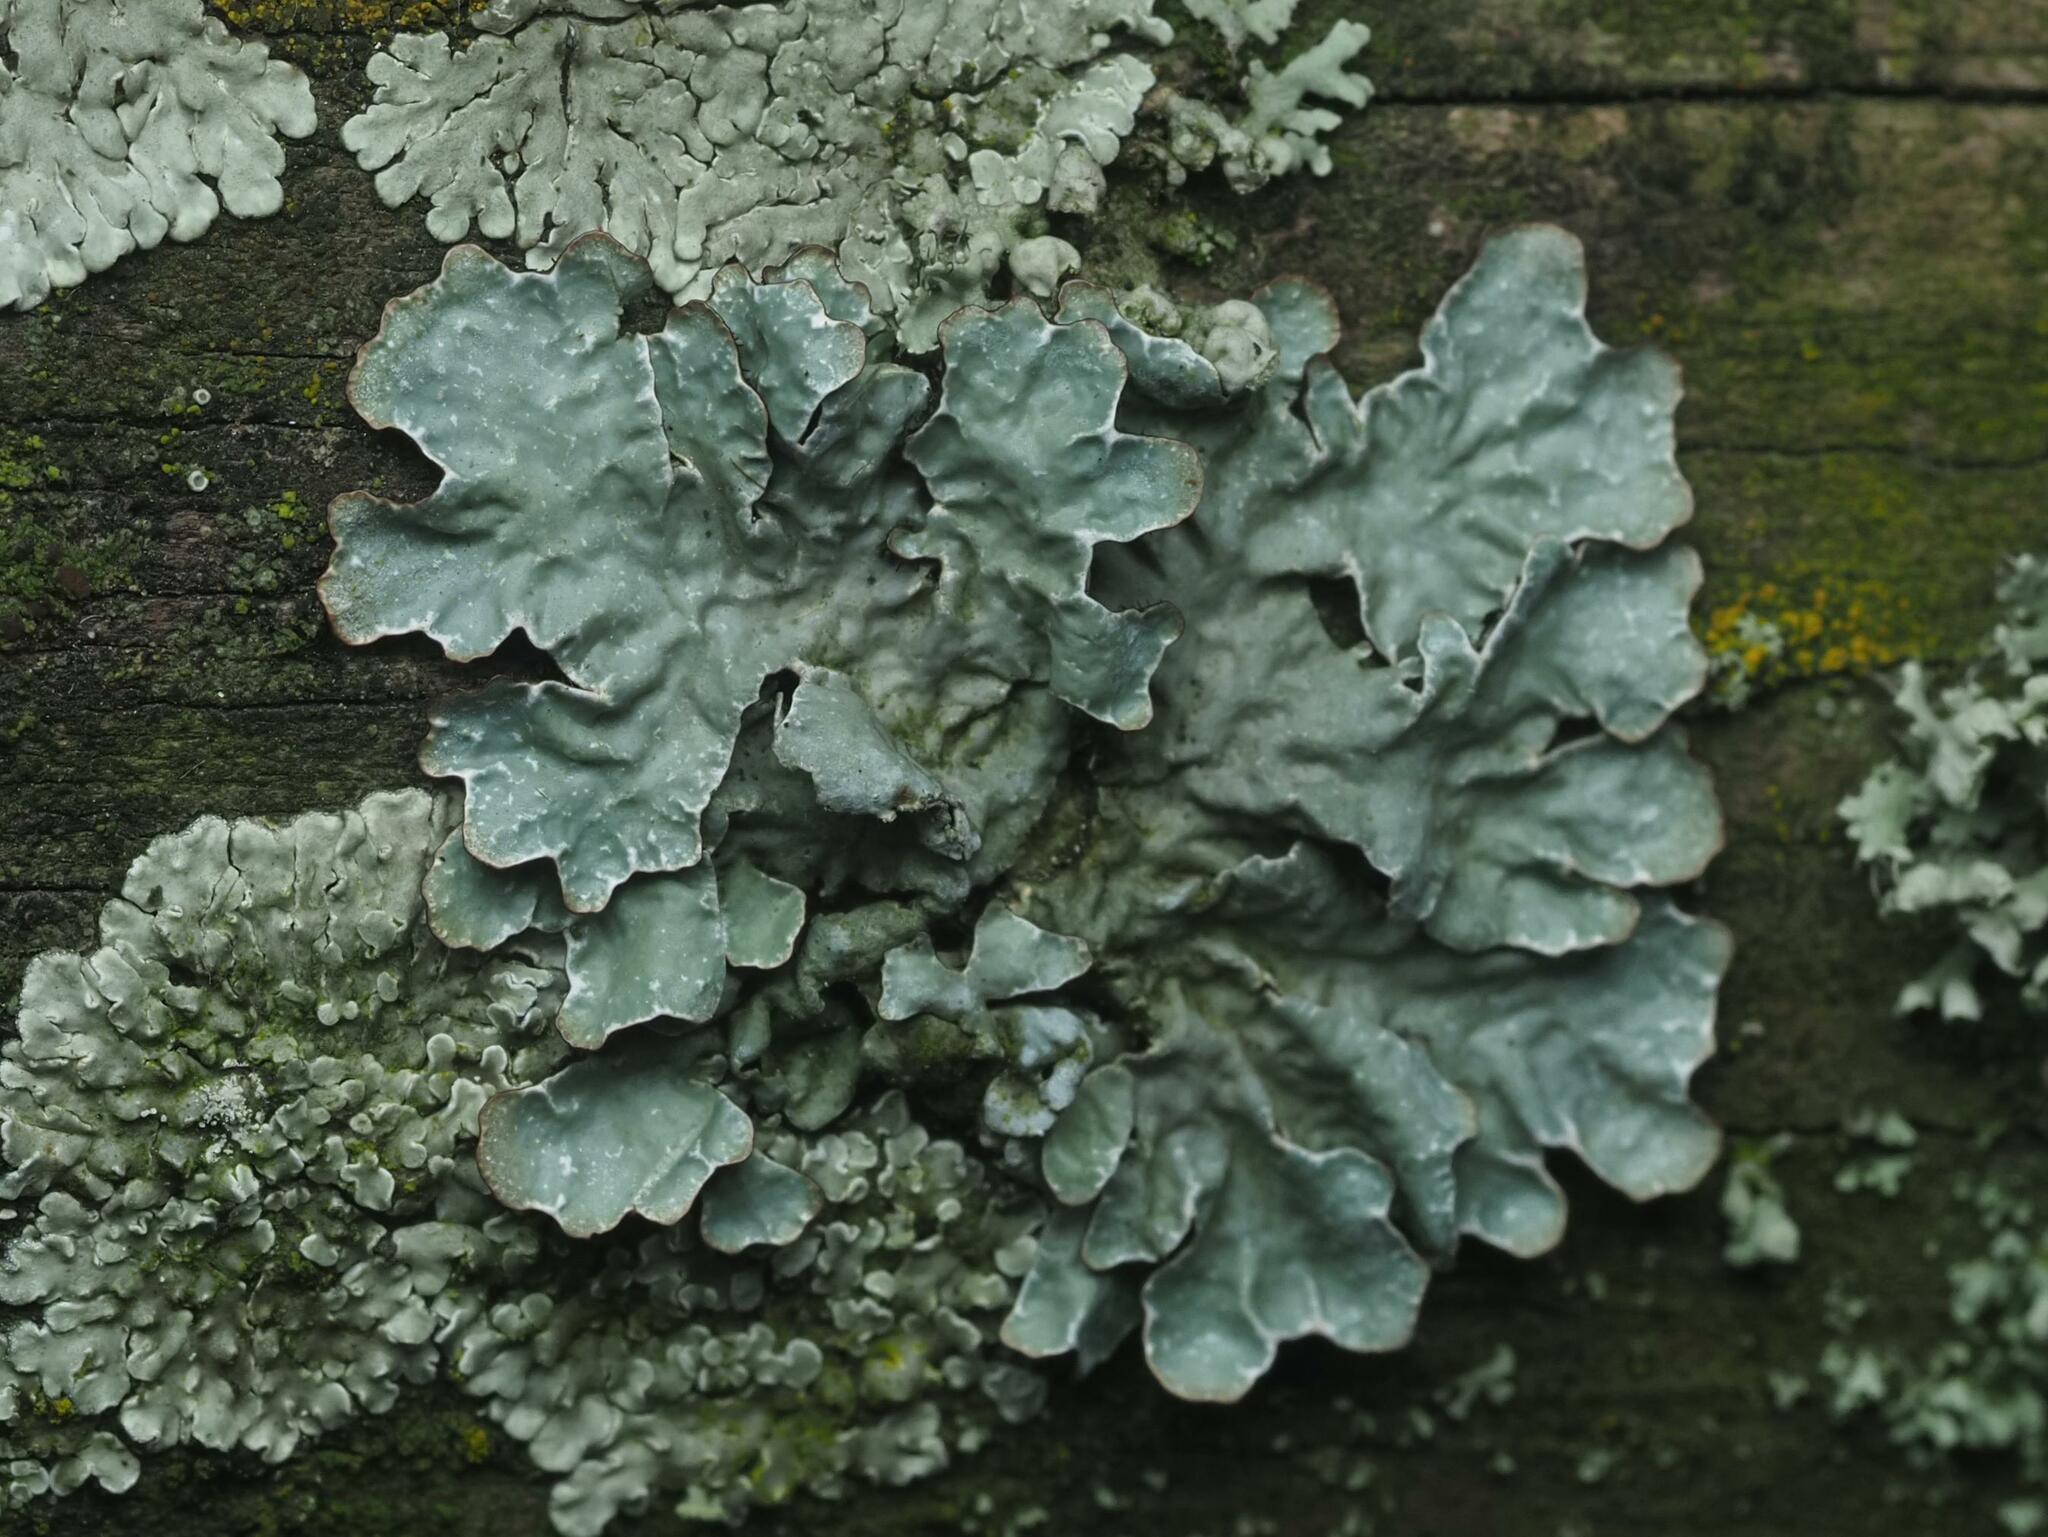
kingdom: Fungi
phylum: Ascomycota
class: Lecanoromycetes
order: Lecanorales
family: Parmeliaceae
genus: Parmelia
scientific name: Parmelia sulcata
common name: Netted shield lichen
